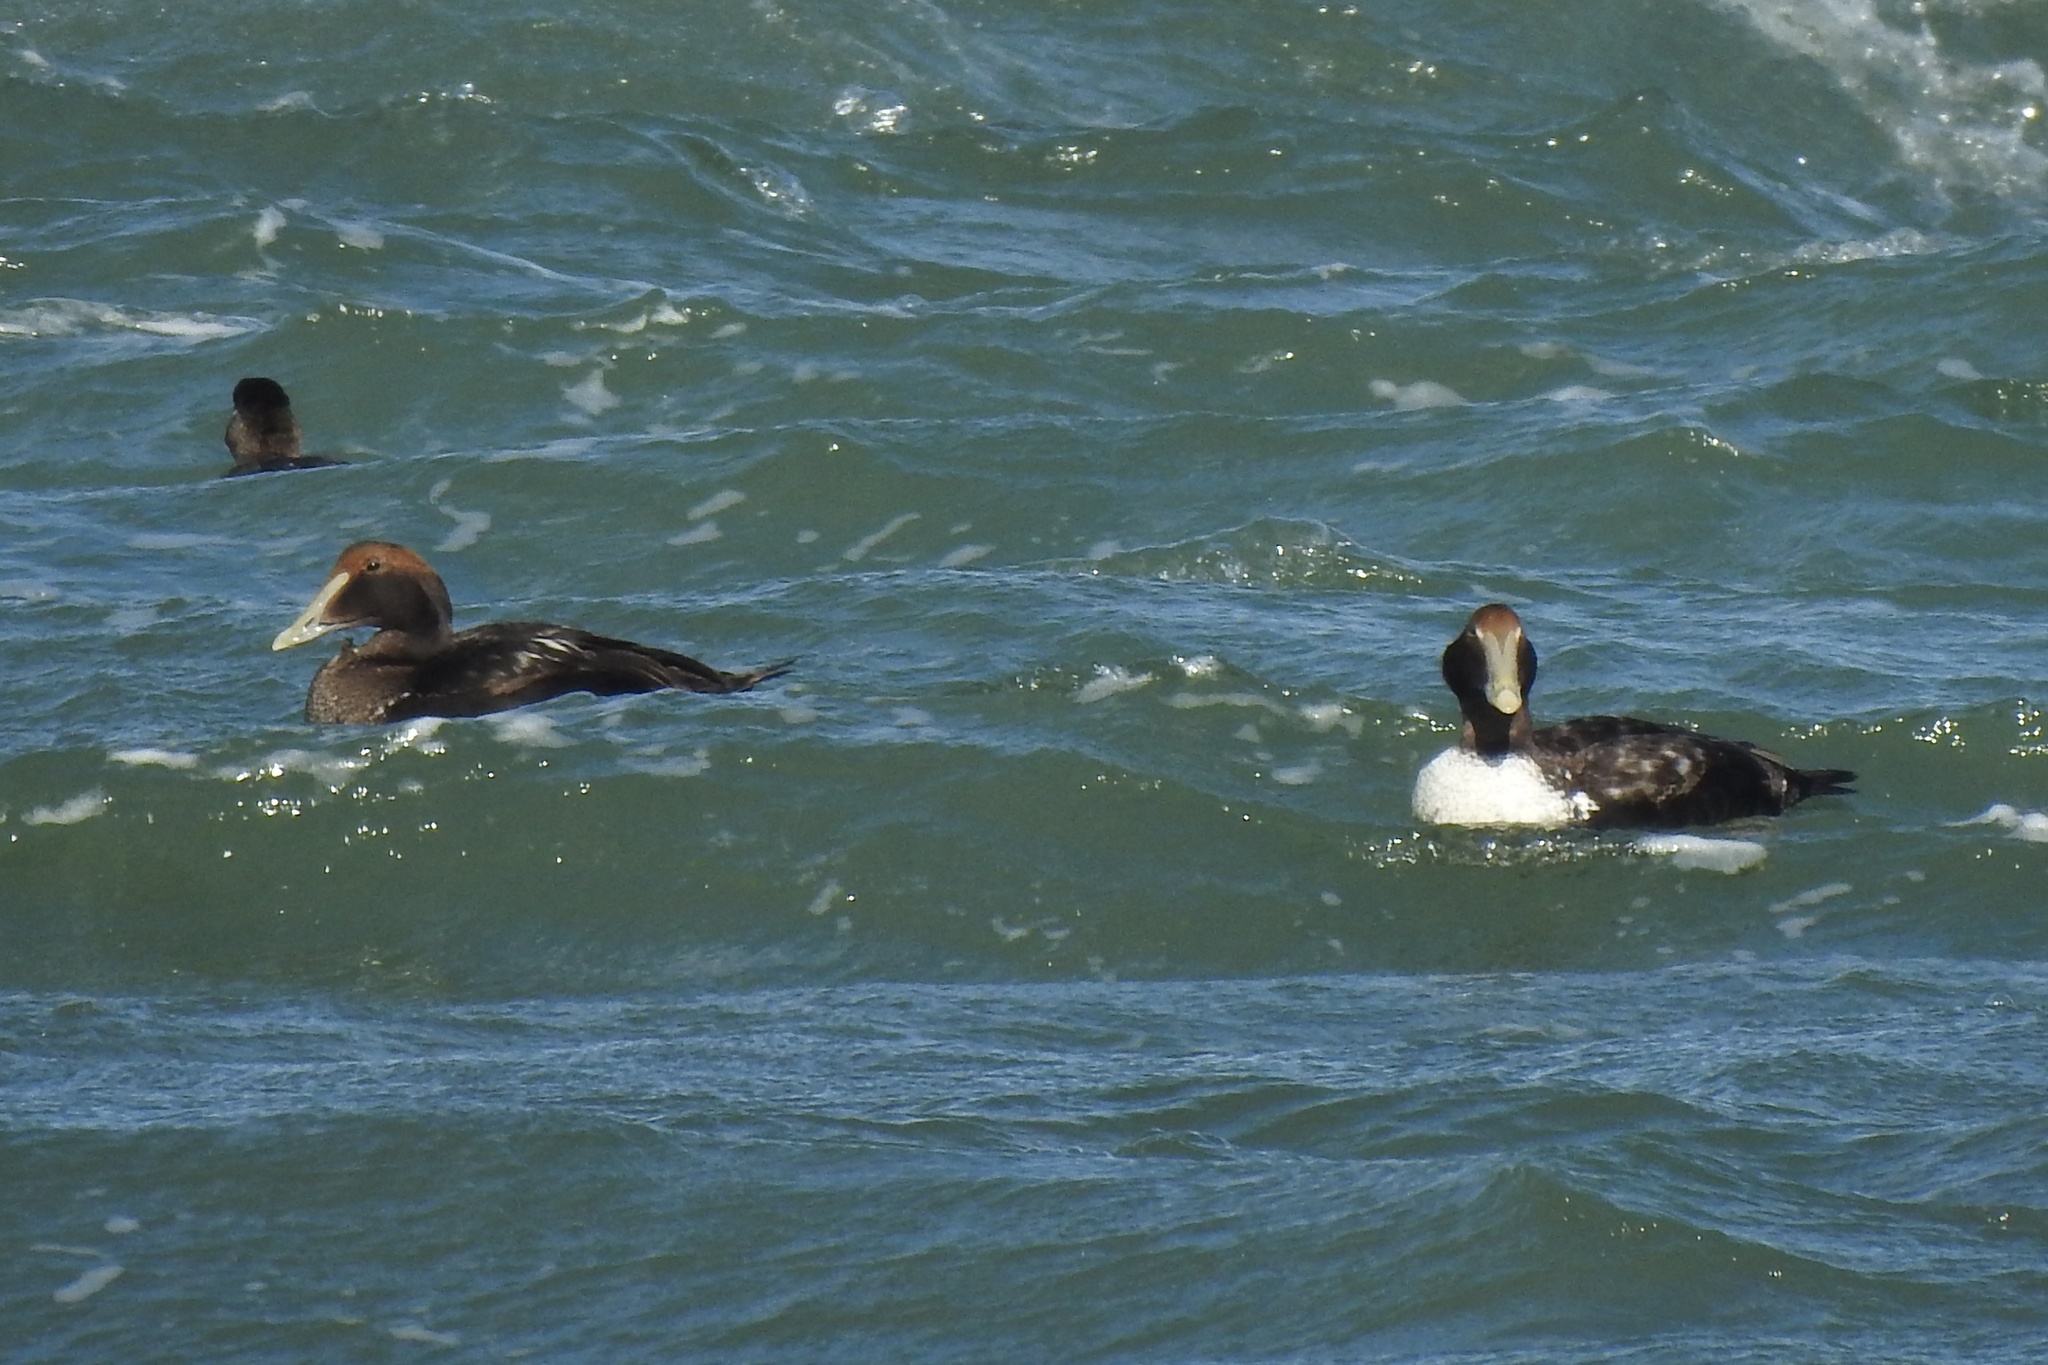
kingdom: Animalia
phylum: Chordata
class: Aves
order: Anseriformes
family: Anatidae
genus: Somateria
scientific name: Somateria mollissima
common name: Common eider
